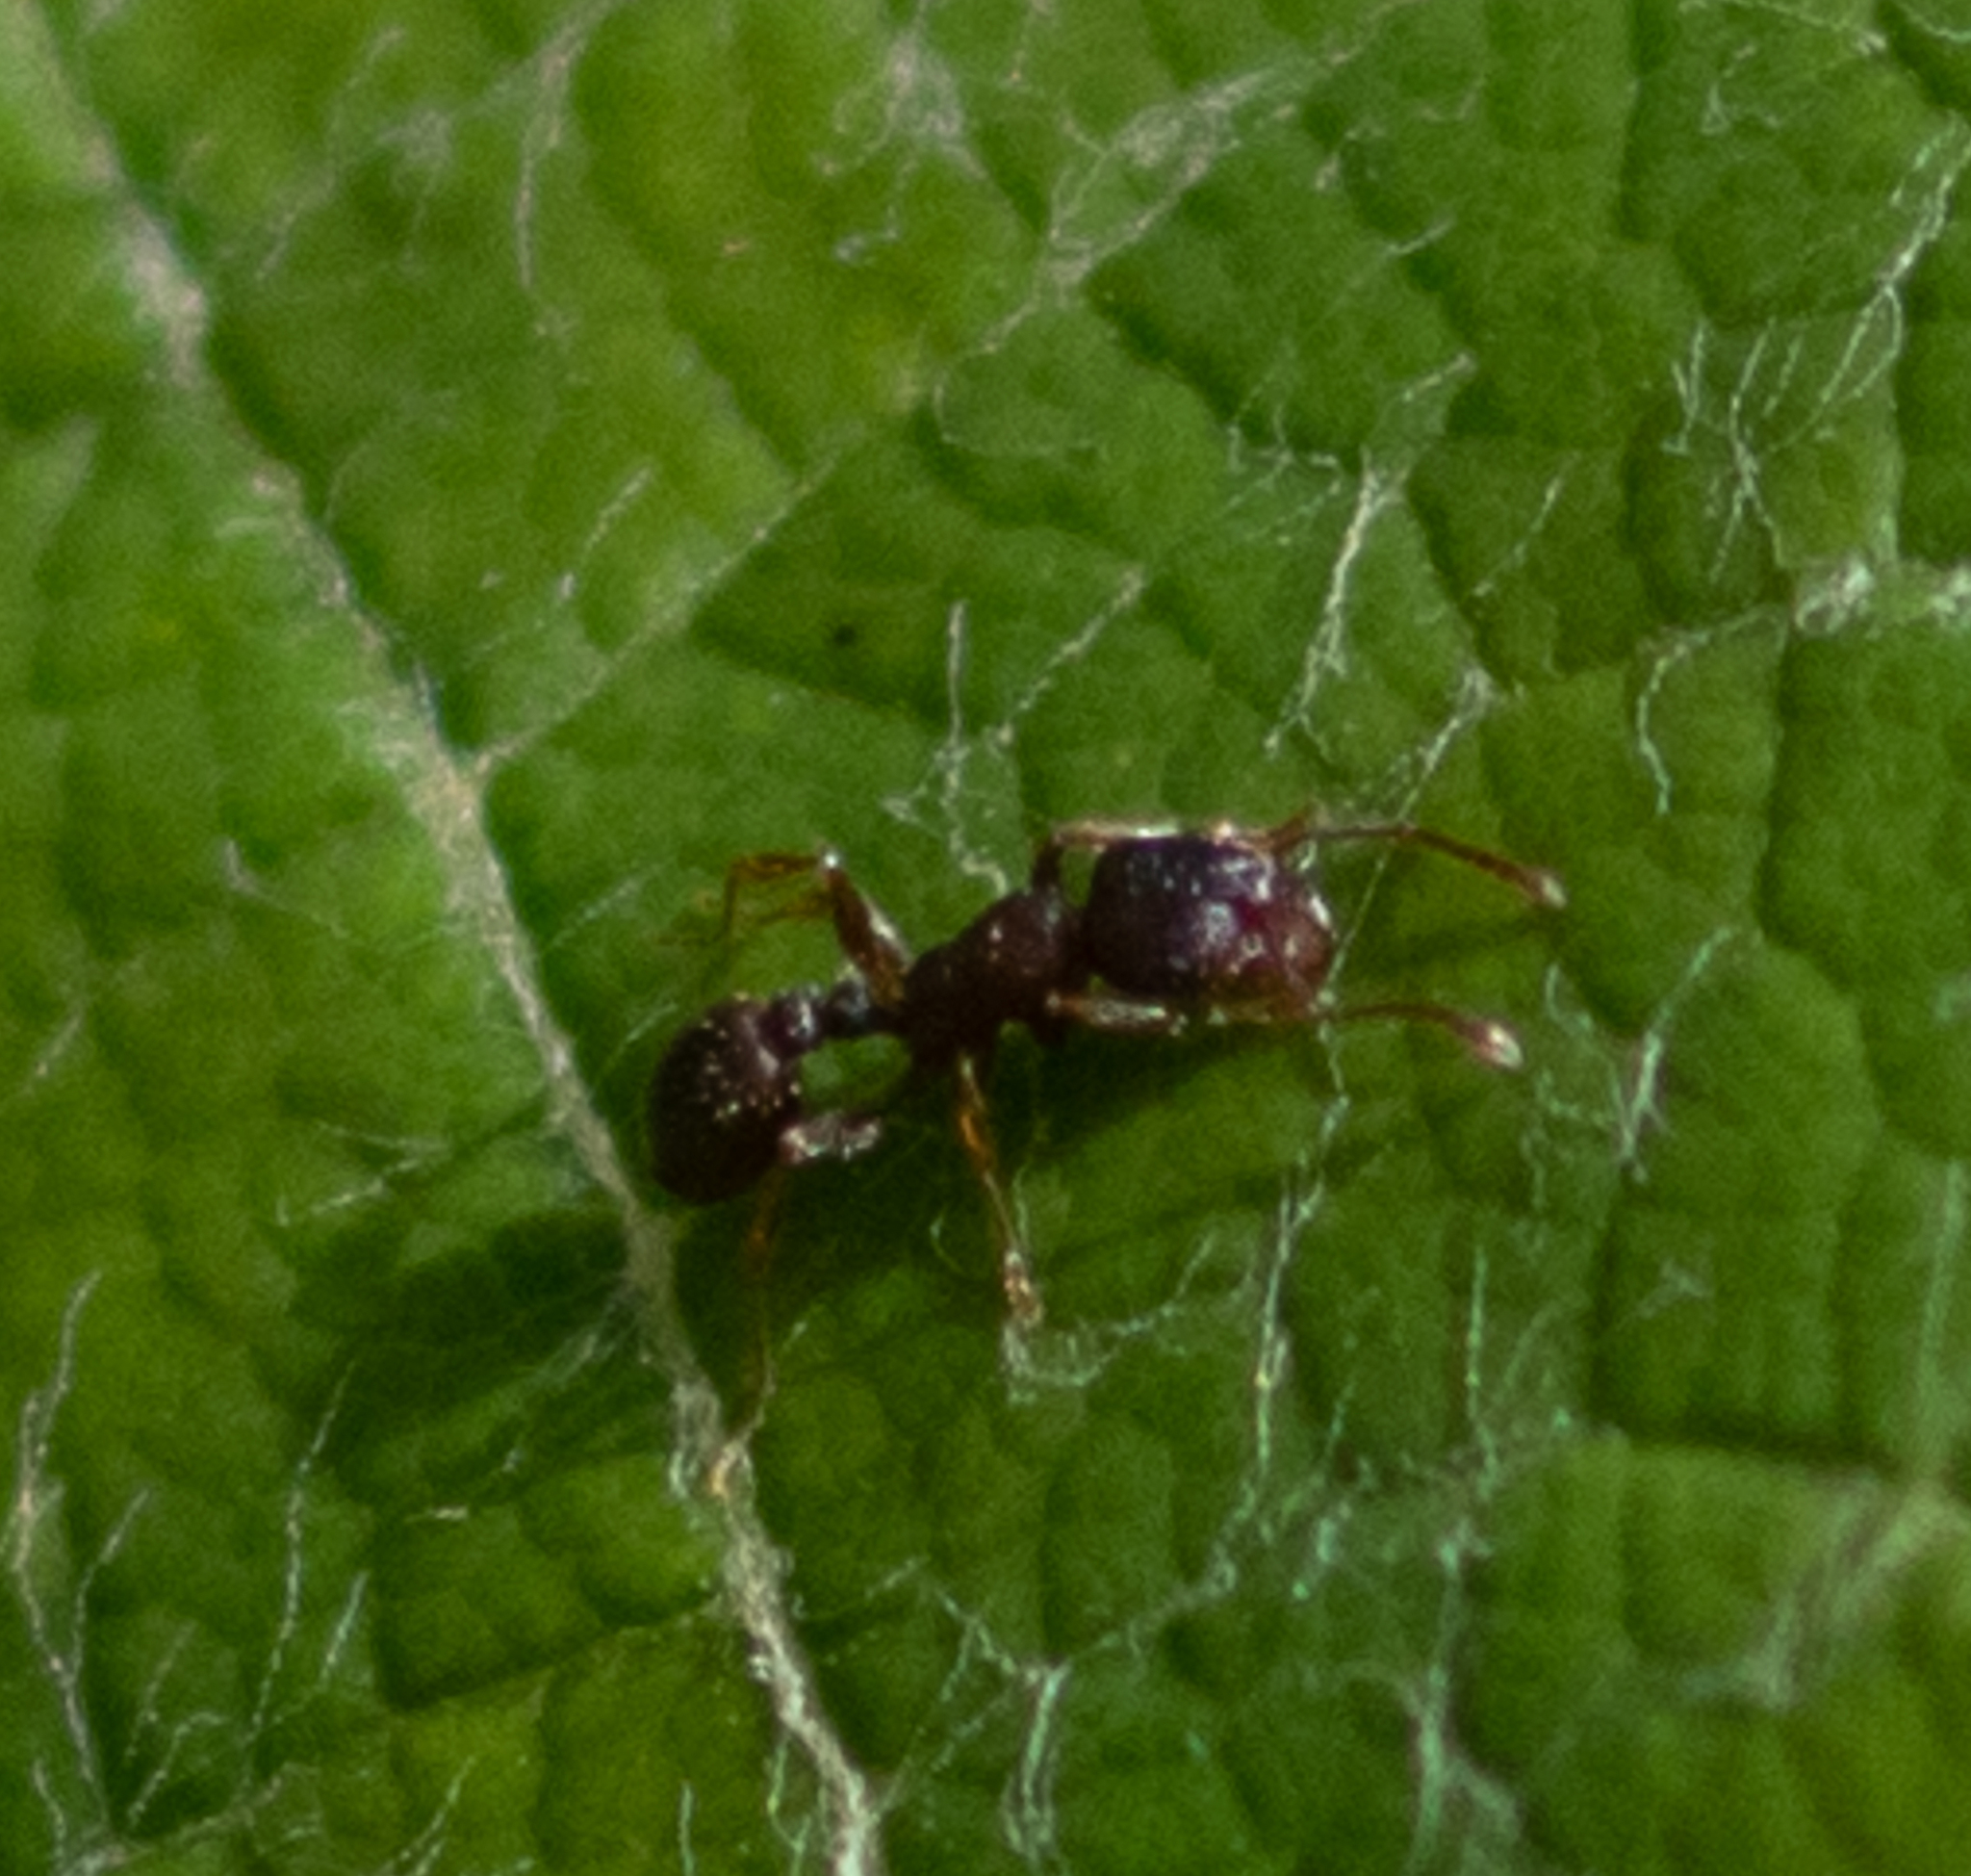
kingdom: Animalia
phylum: Arthropoda
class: Insecta
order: Hymenoptera
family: Formicidae
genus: Tetramorium
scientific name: Tetramorium immigrans
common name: Pavement ant
